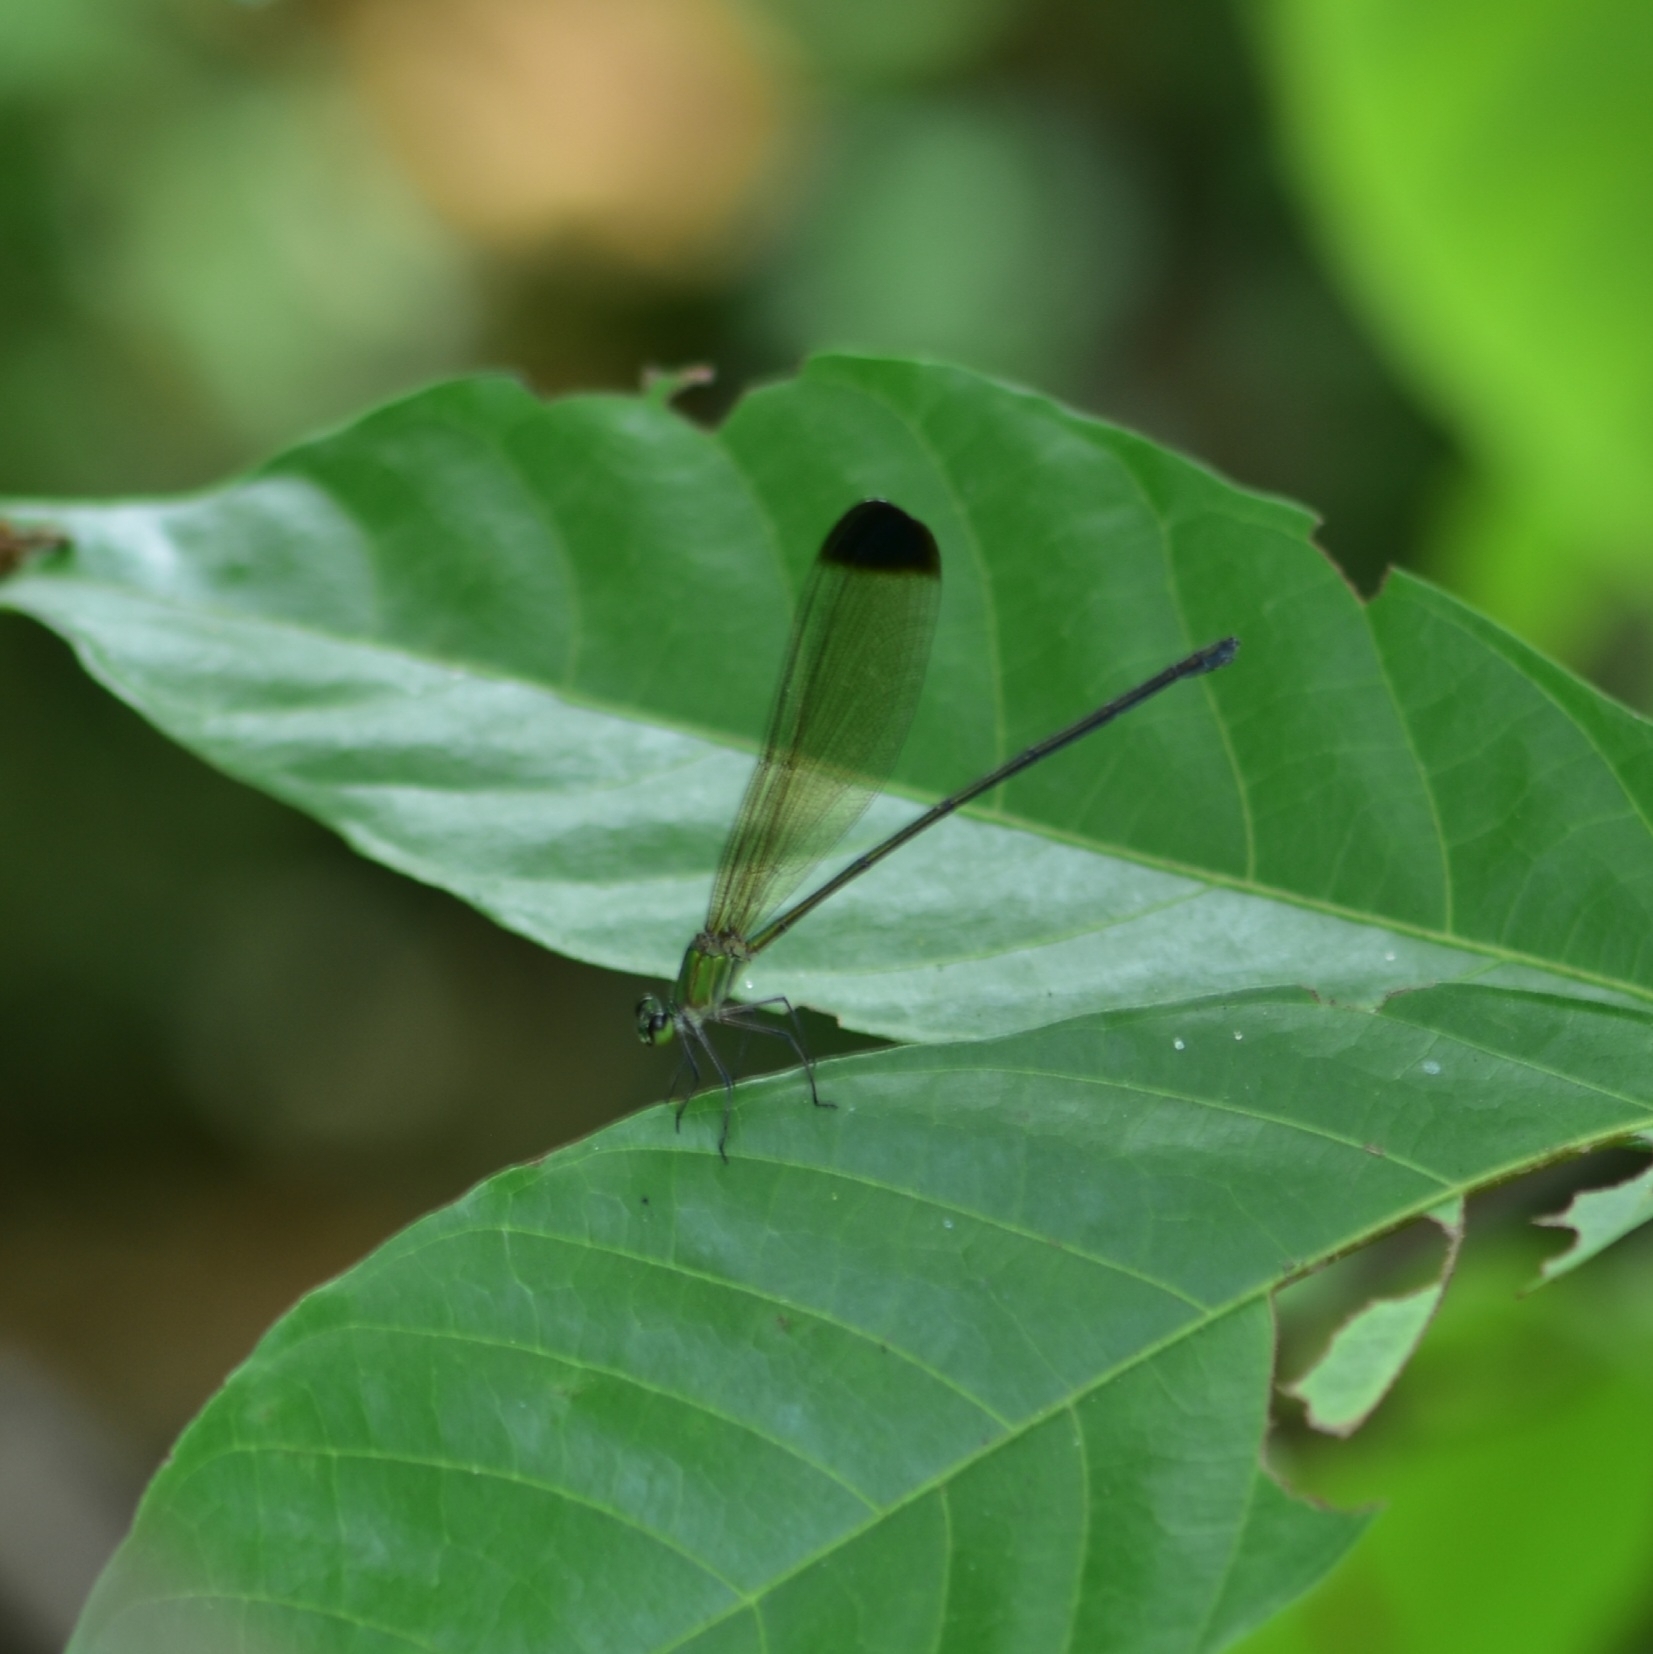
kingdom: Animalia
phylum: Arthropoda
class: Insecta
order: Odonata
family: Calopterygidae
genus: Vestalis
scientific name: Vestalis apicalis
